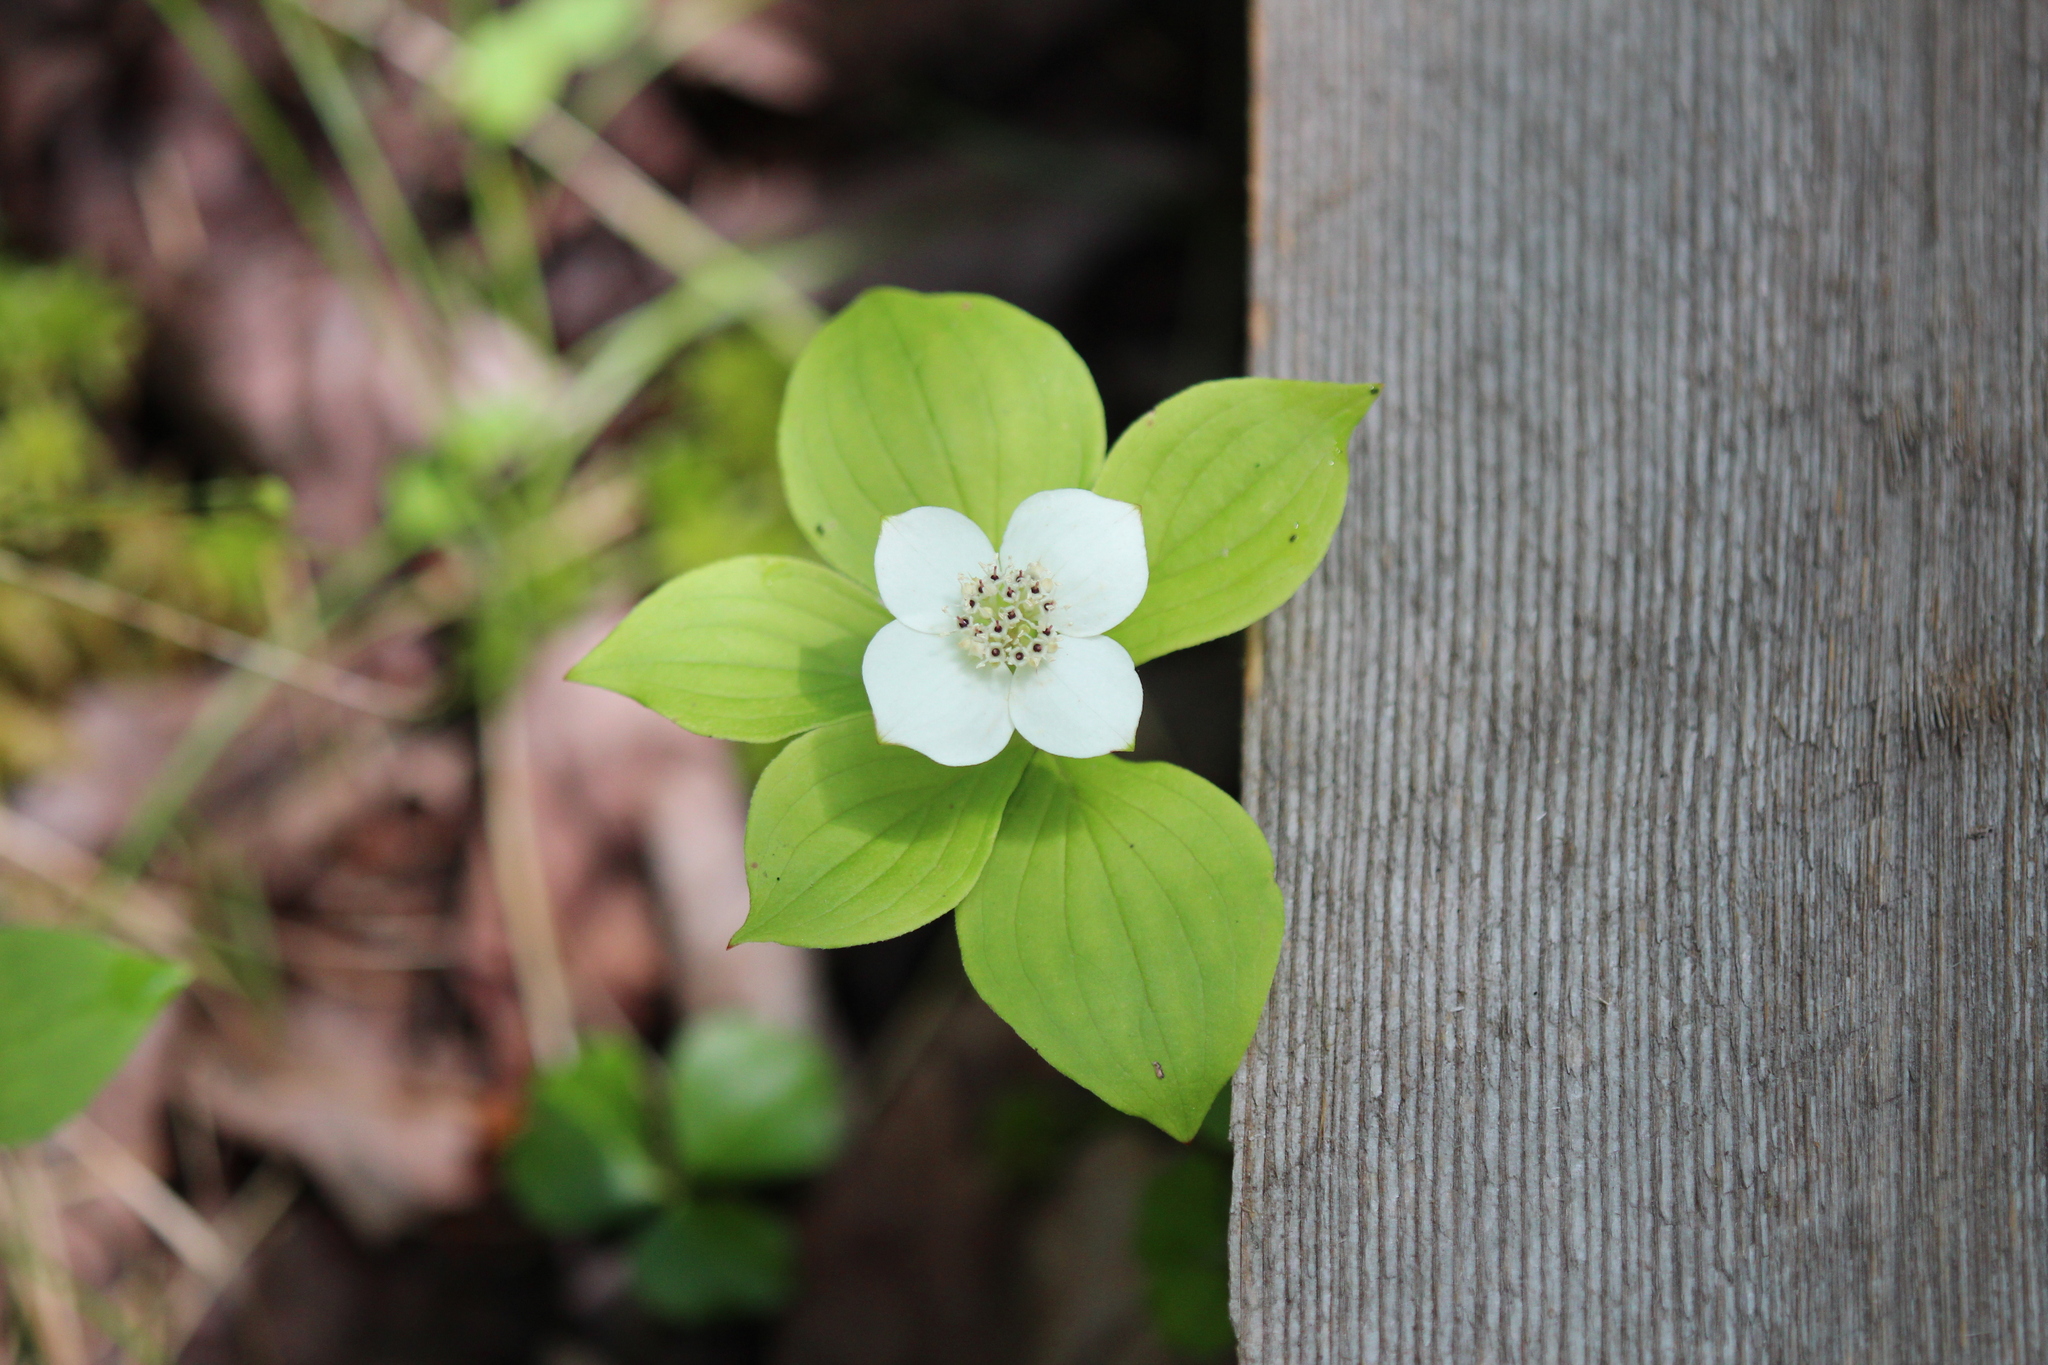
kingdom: Plantae
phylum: Tracheophyta
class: Magnoliopsida
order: Cornales
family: Cornaceae
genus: Cornus
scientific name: Cornus canadensis
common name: Creeping dogwood
